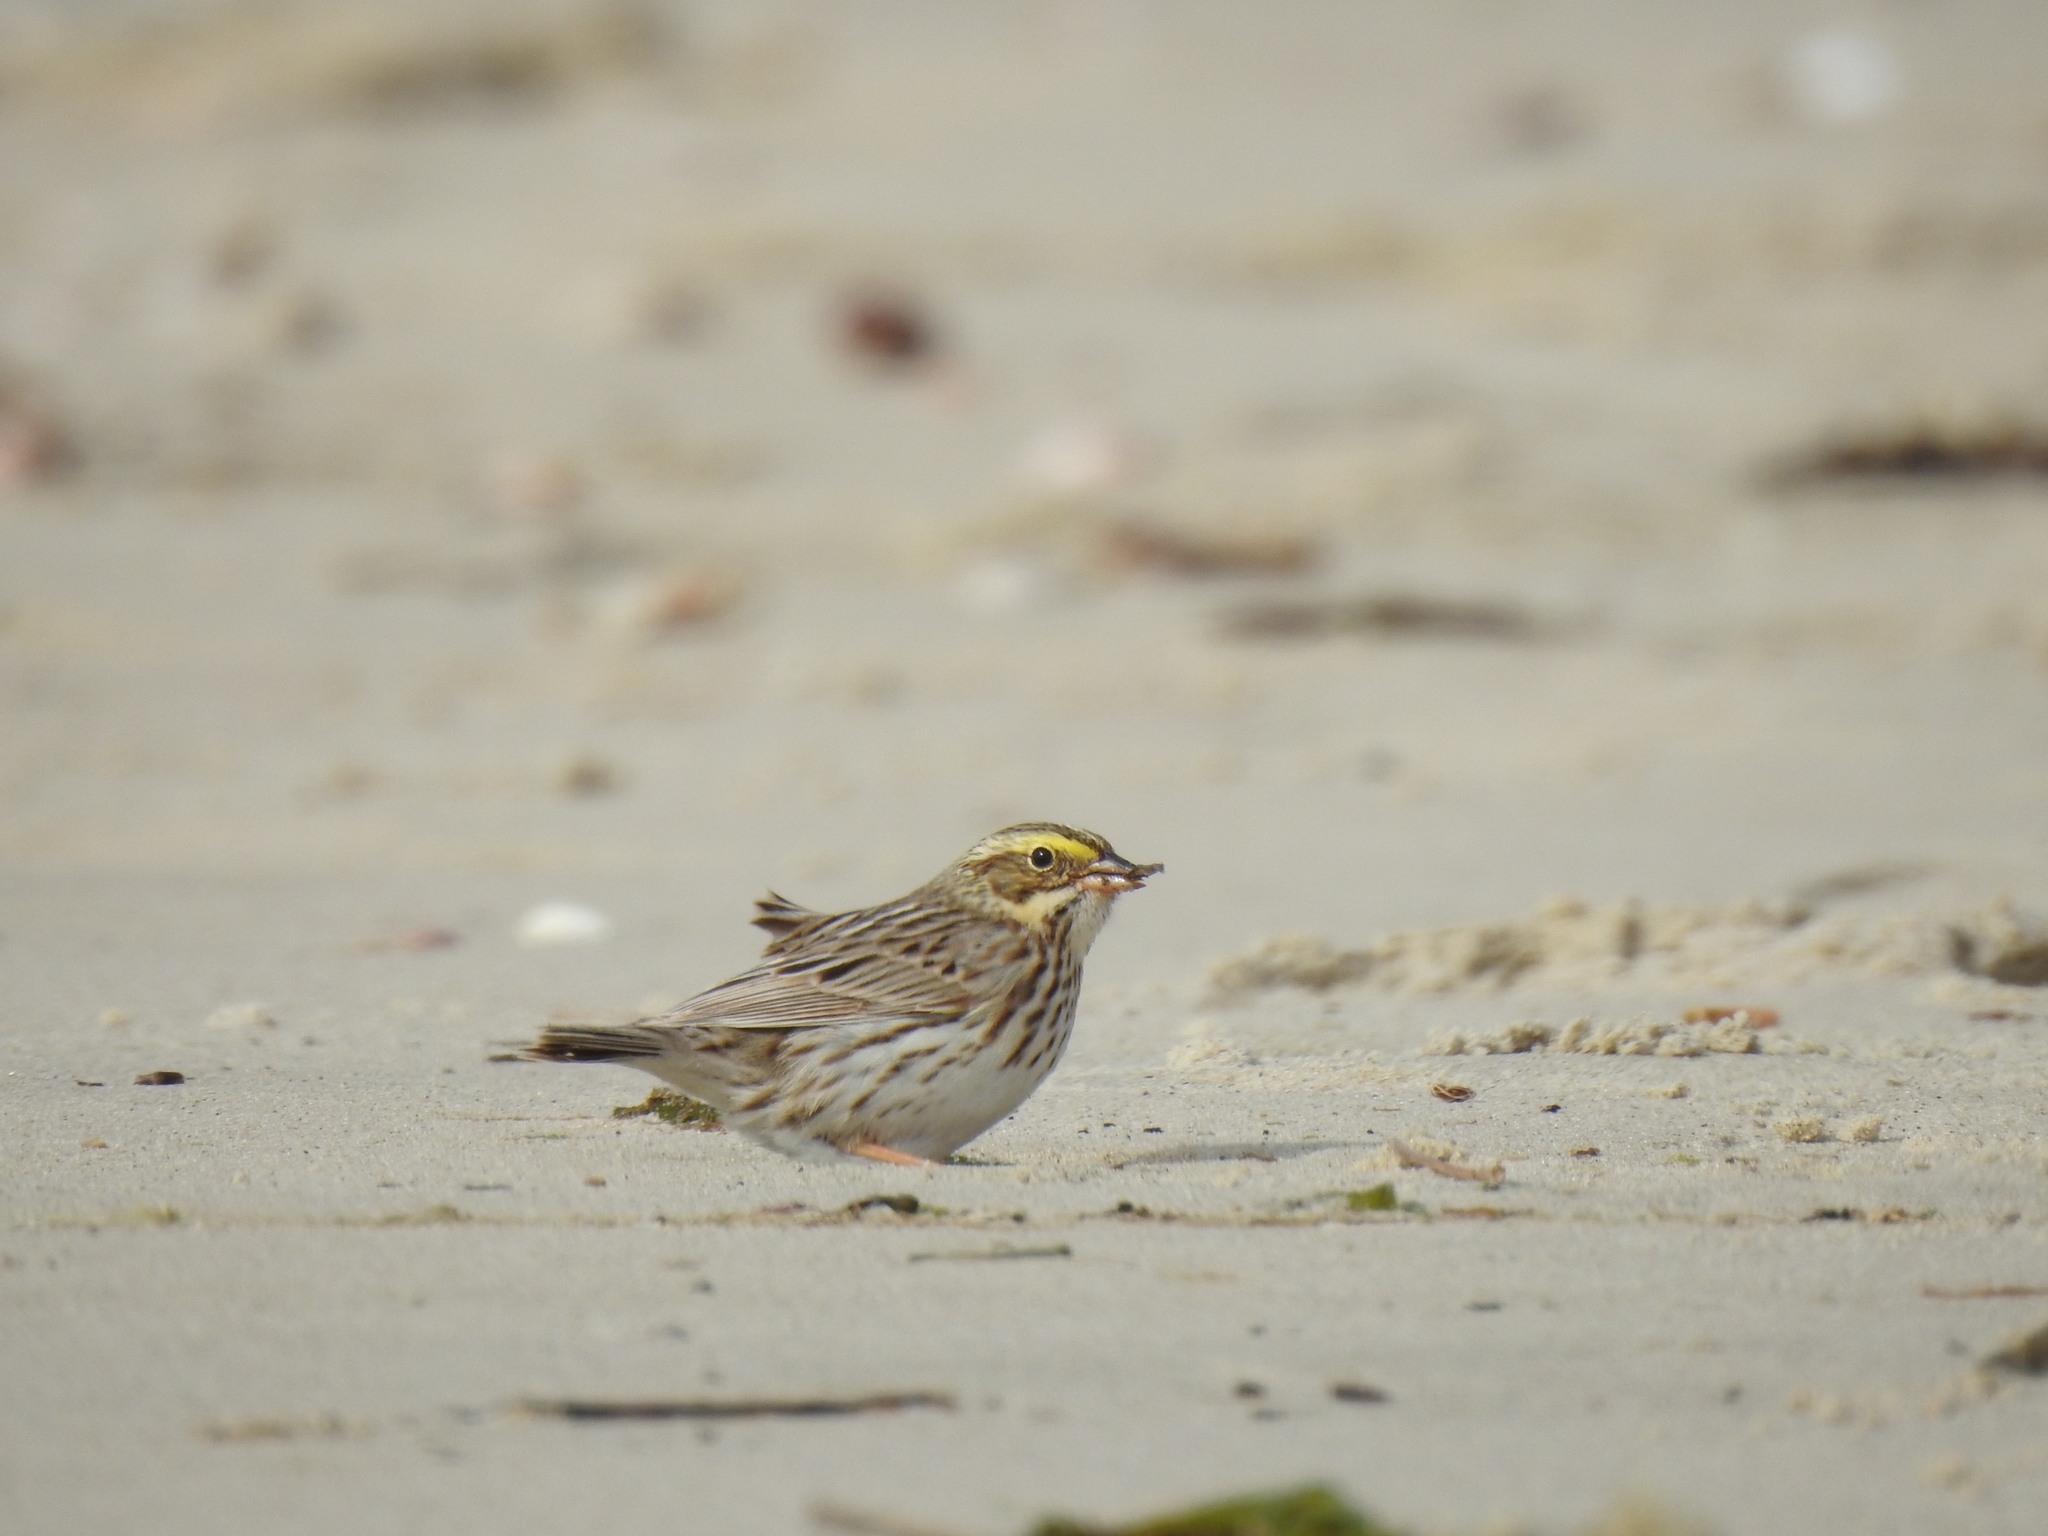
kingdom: Animalia
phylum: Chordata
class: Aves
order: Passeriformes
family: Passerellidae
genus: Passerculus
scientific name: Passerculus sandwichensis
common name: Savannah sparrow
